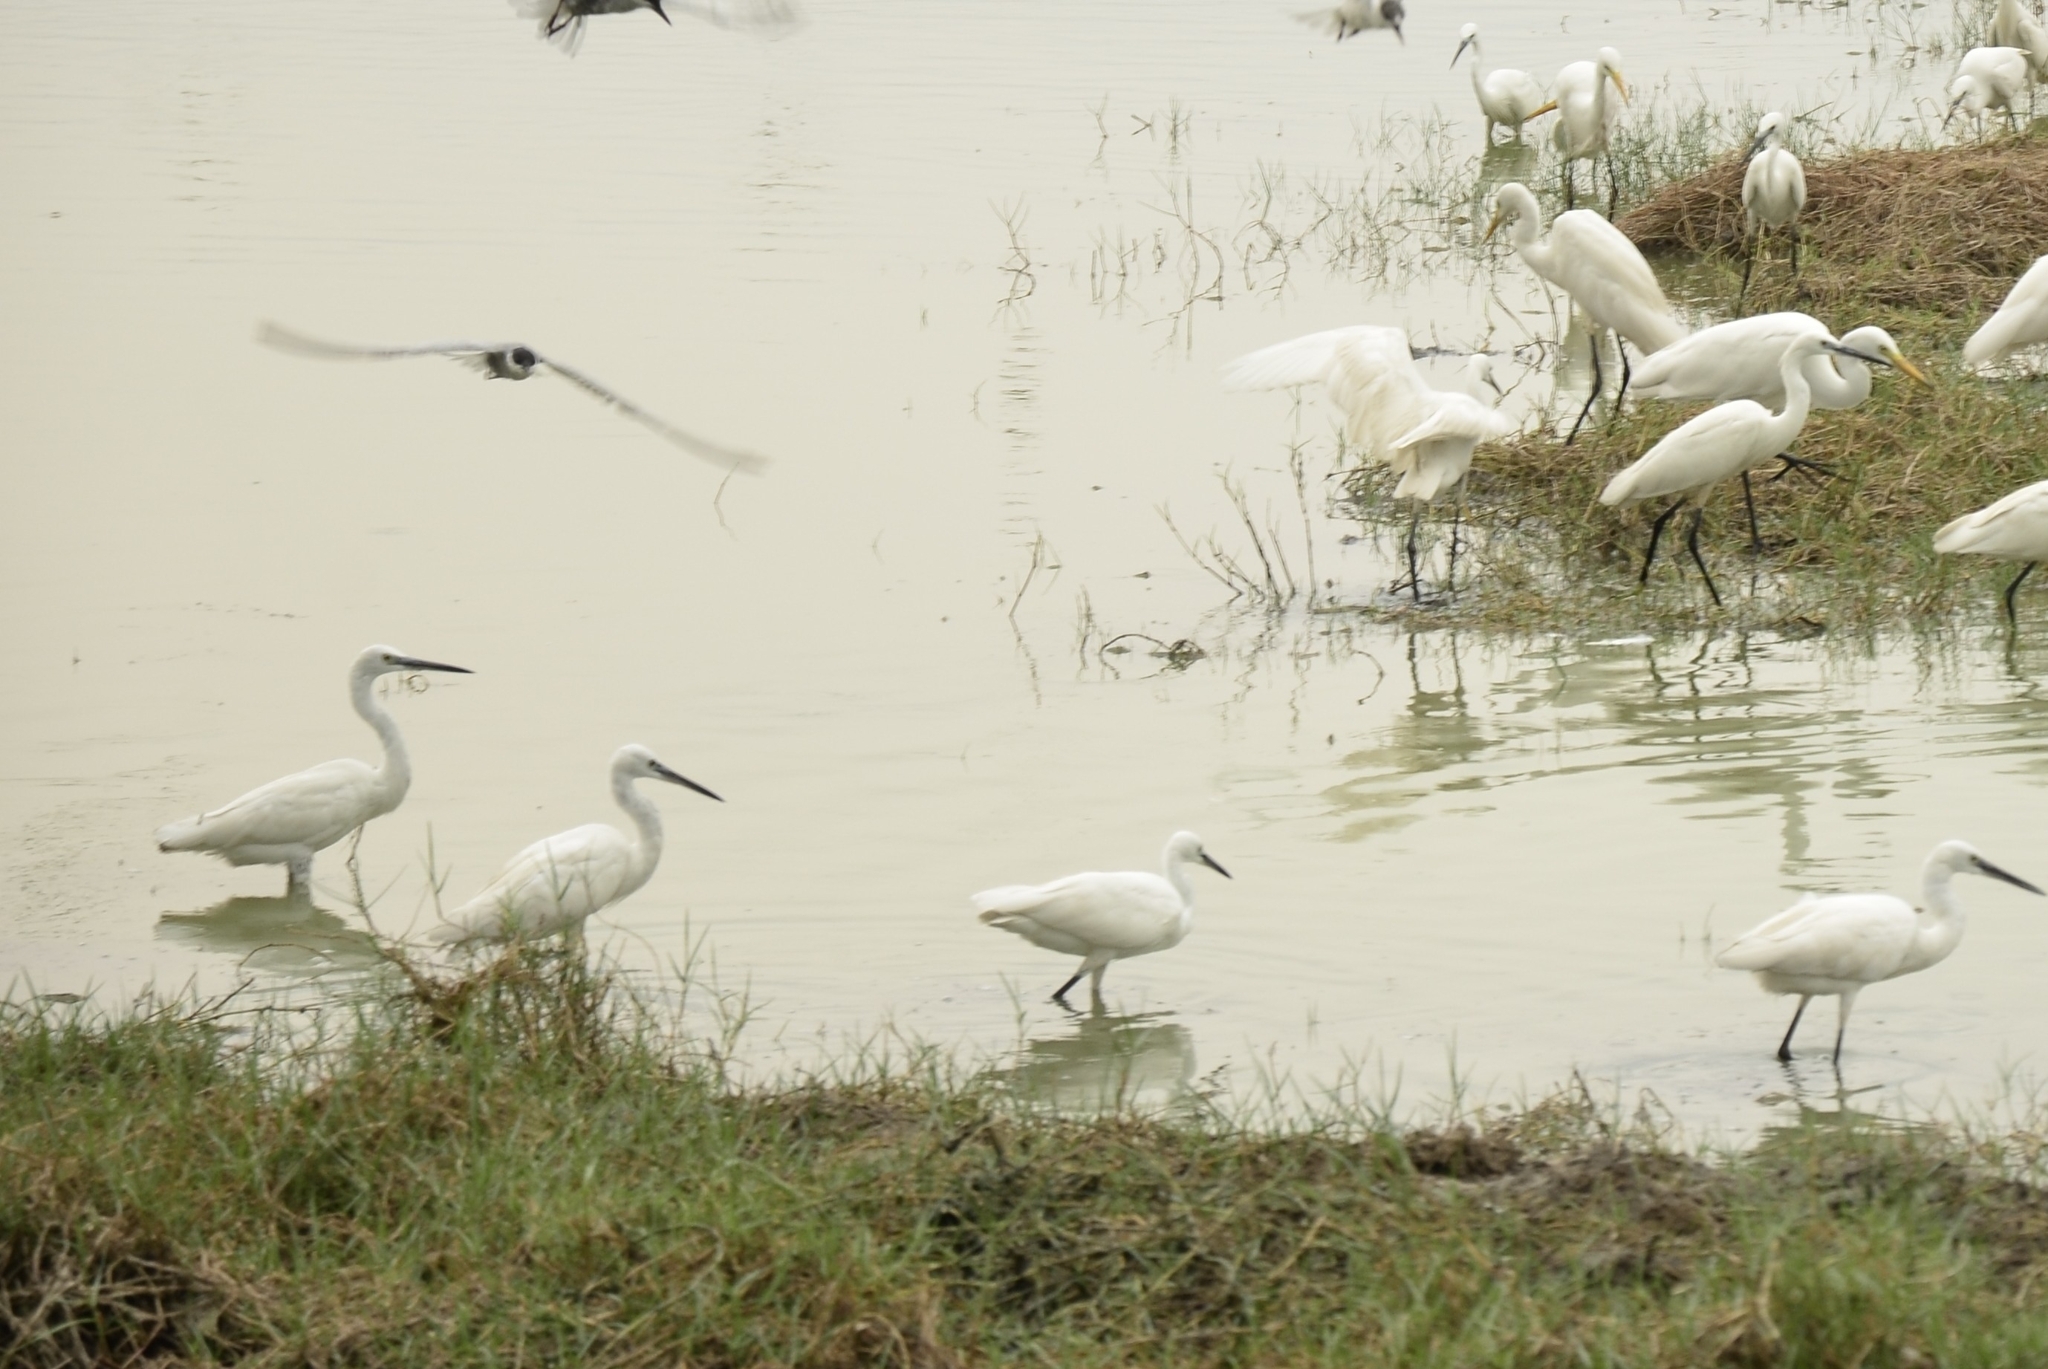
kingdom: Animalia
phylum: Chordata
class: Aves
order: Pelecaniformes
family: Ardeidae
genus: Egretta
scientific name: Egretta garzetta
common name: Little egret
